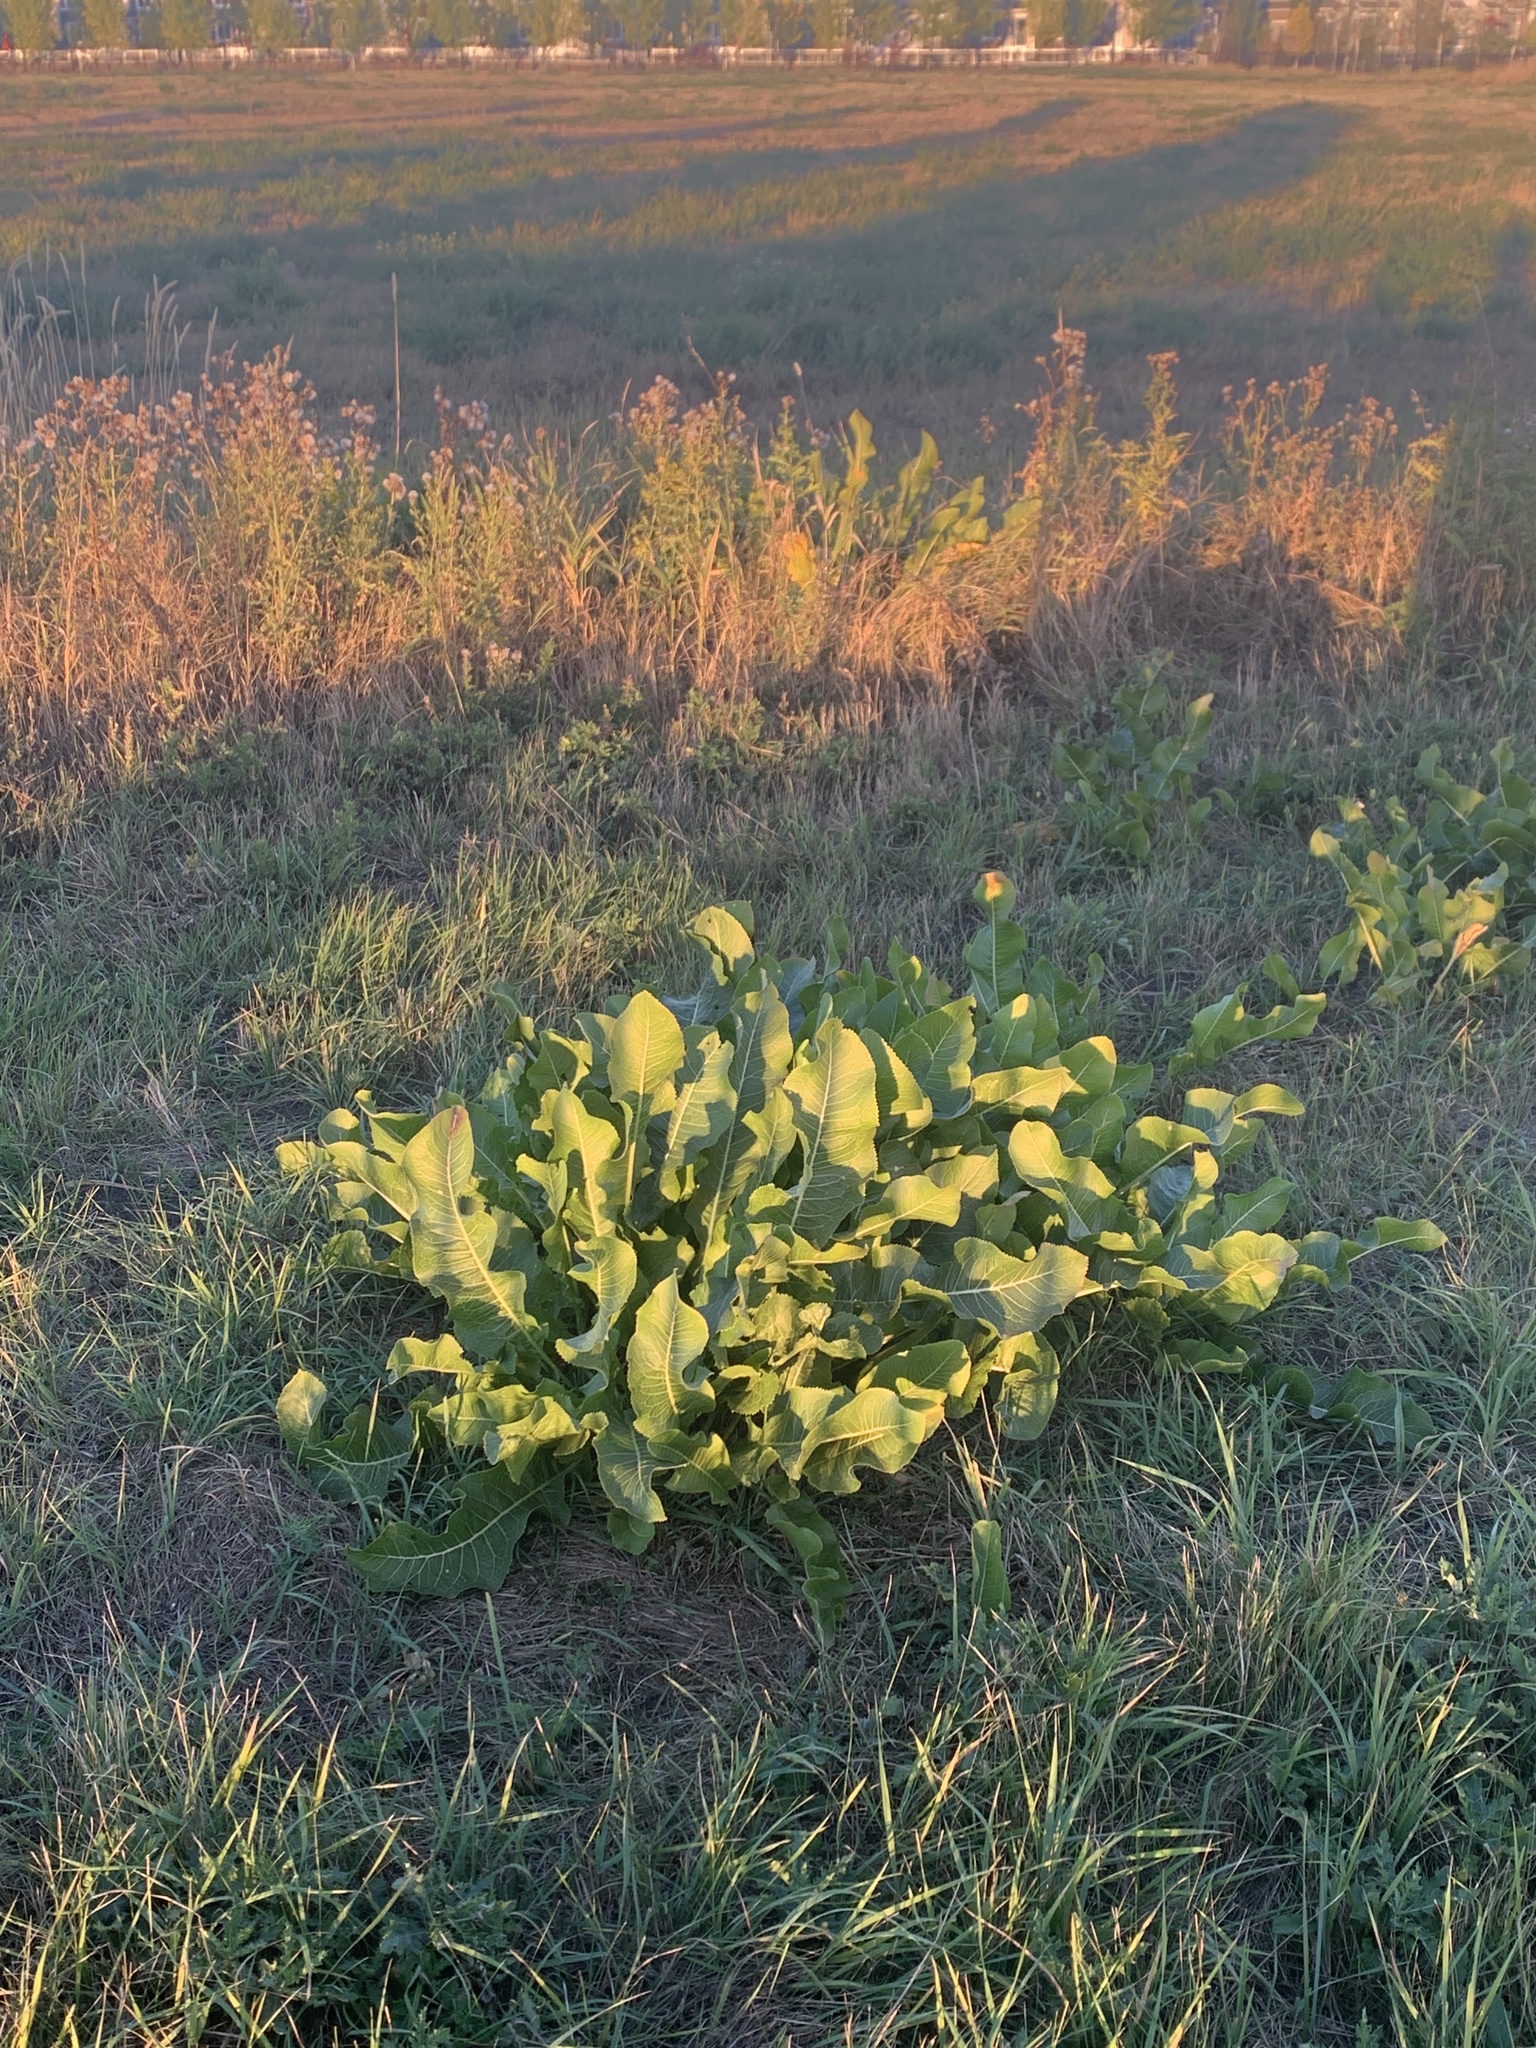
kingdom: Plantae
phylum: Tracheophyta
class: Magnoliopsida
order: Brassicales
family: Brassicaceae
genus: Armoracia
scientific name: Armoracia rusticana
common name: Horseradish
